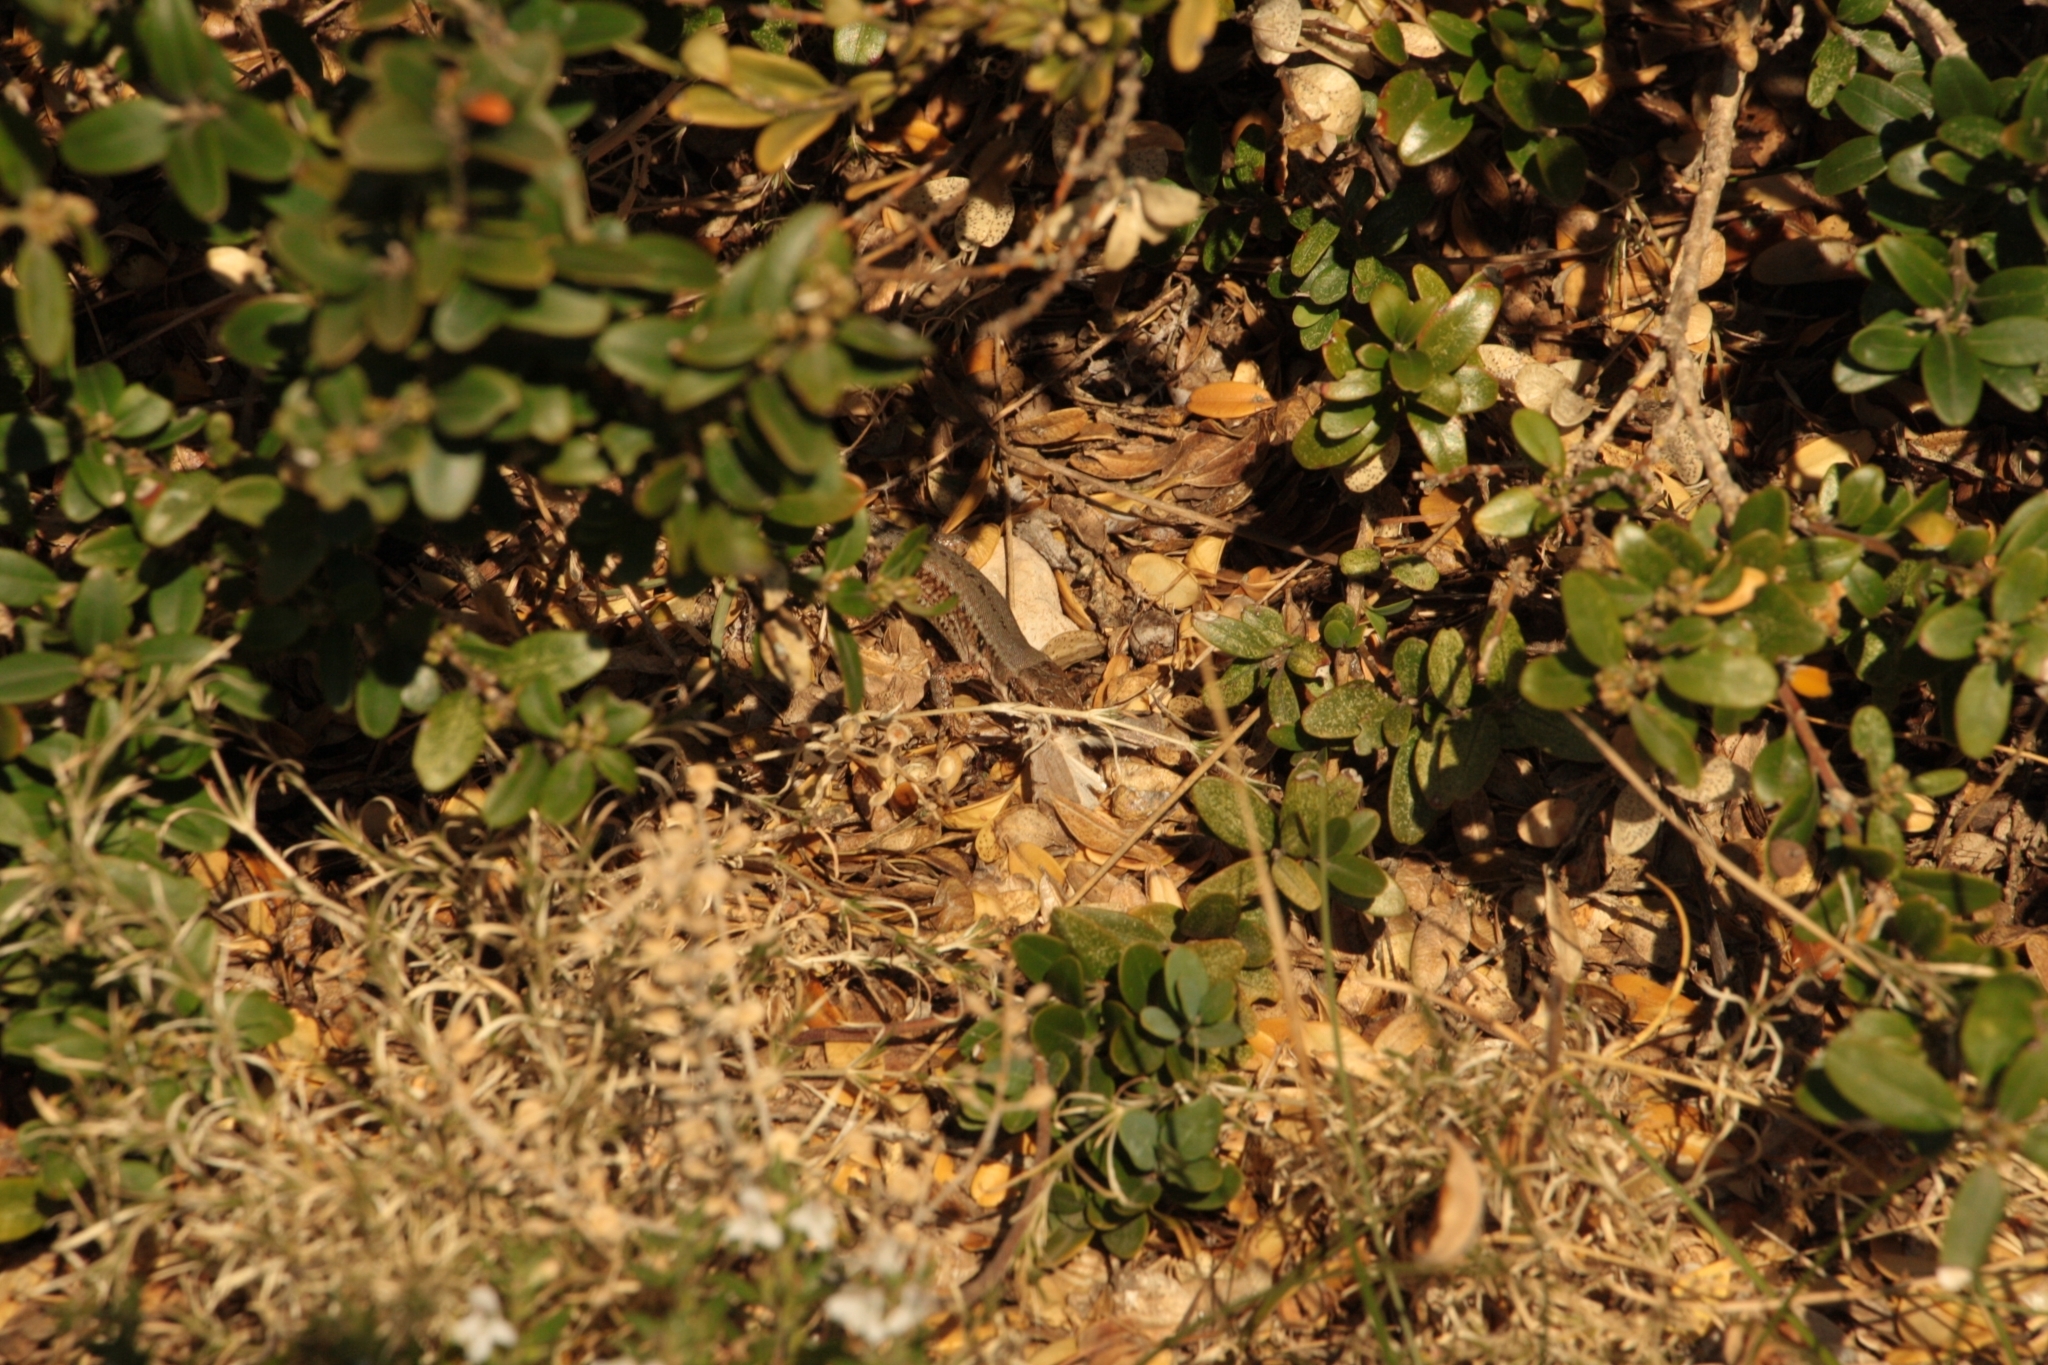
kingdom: Animalia
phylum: Chordata
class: Squamata
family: Lacertidae
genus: Podarcis
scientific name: Podarcis muralis
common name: Common wall lizard
